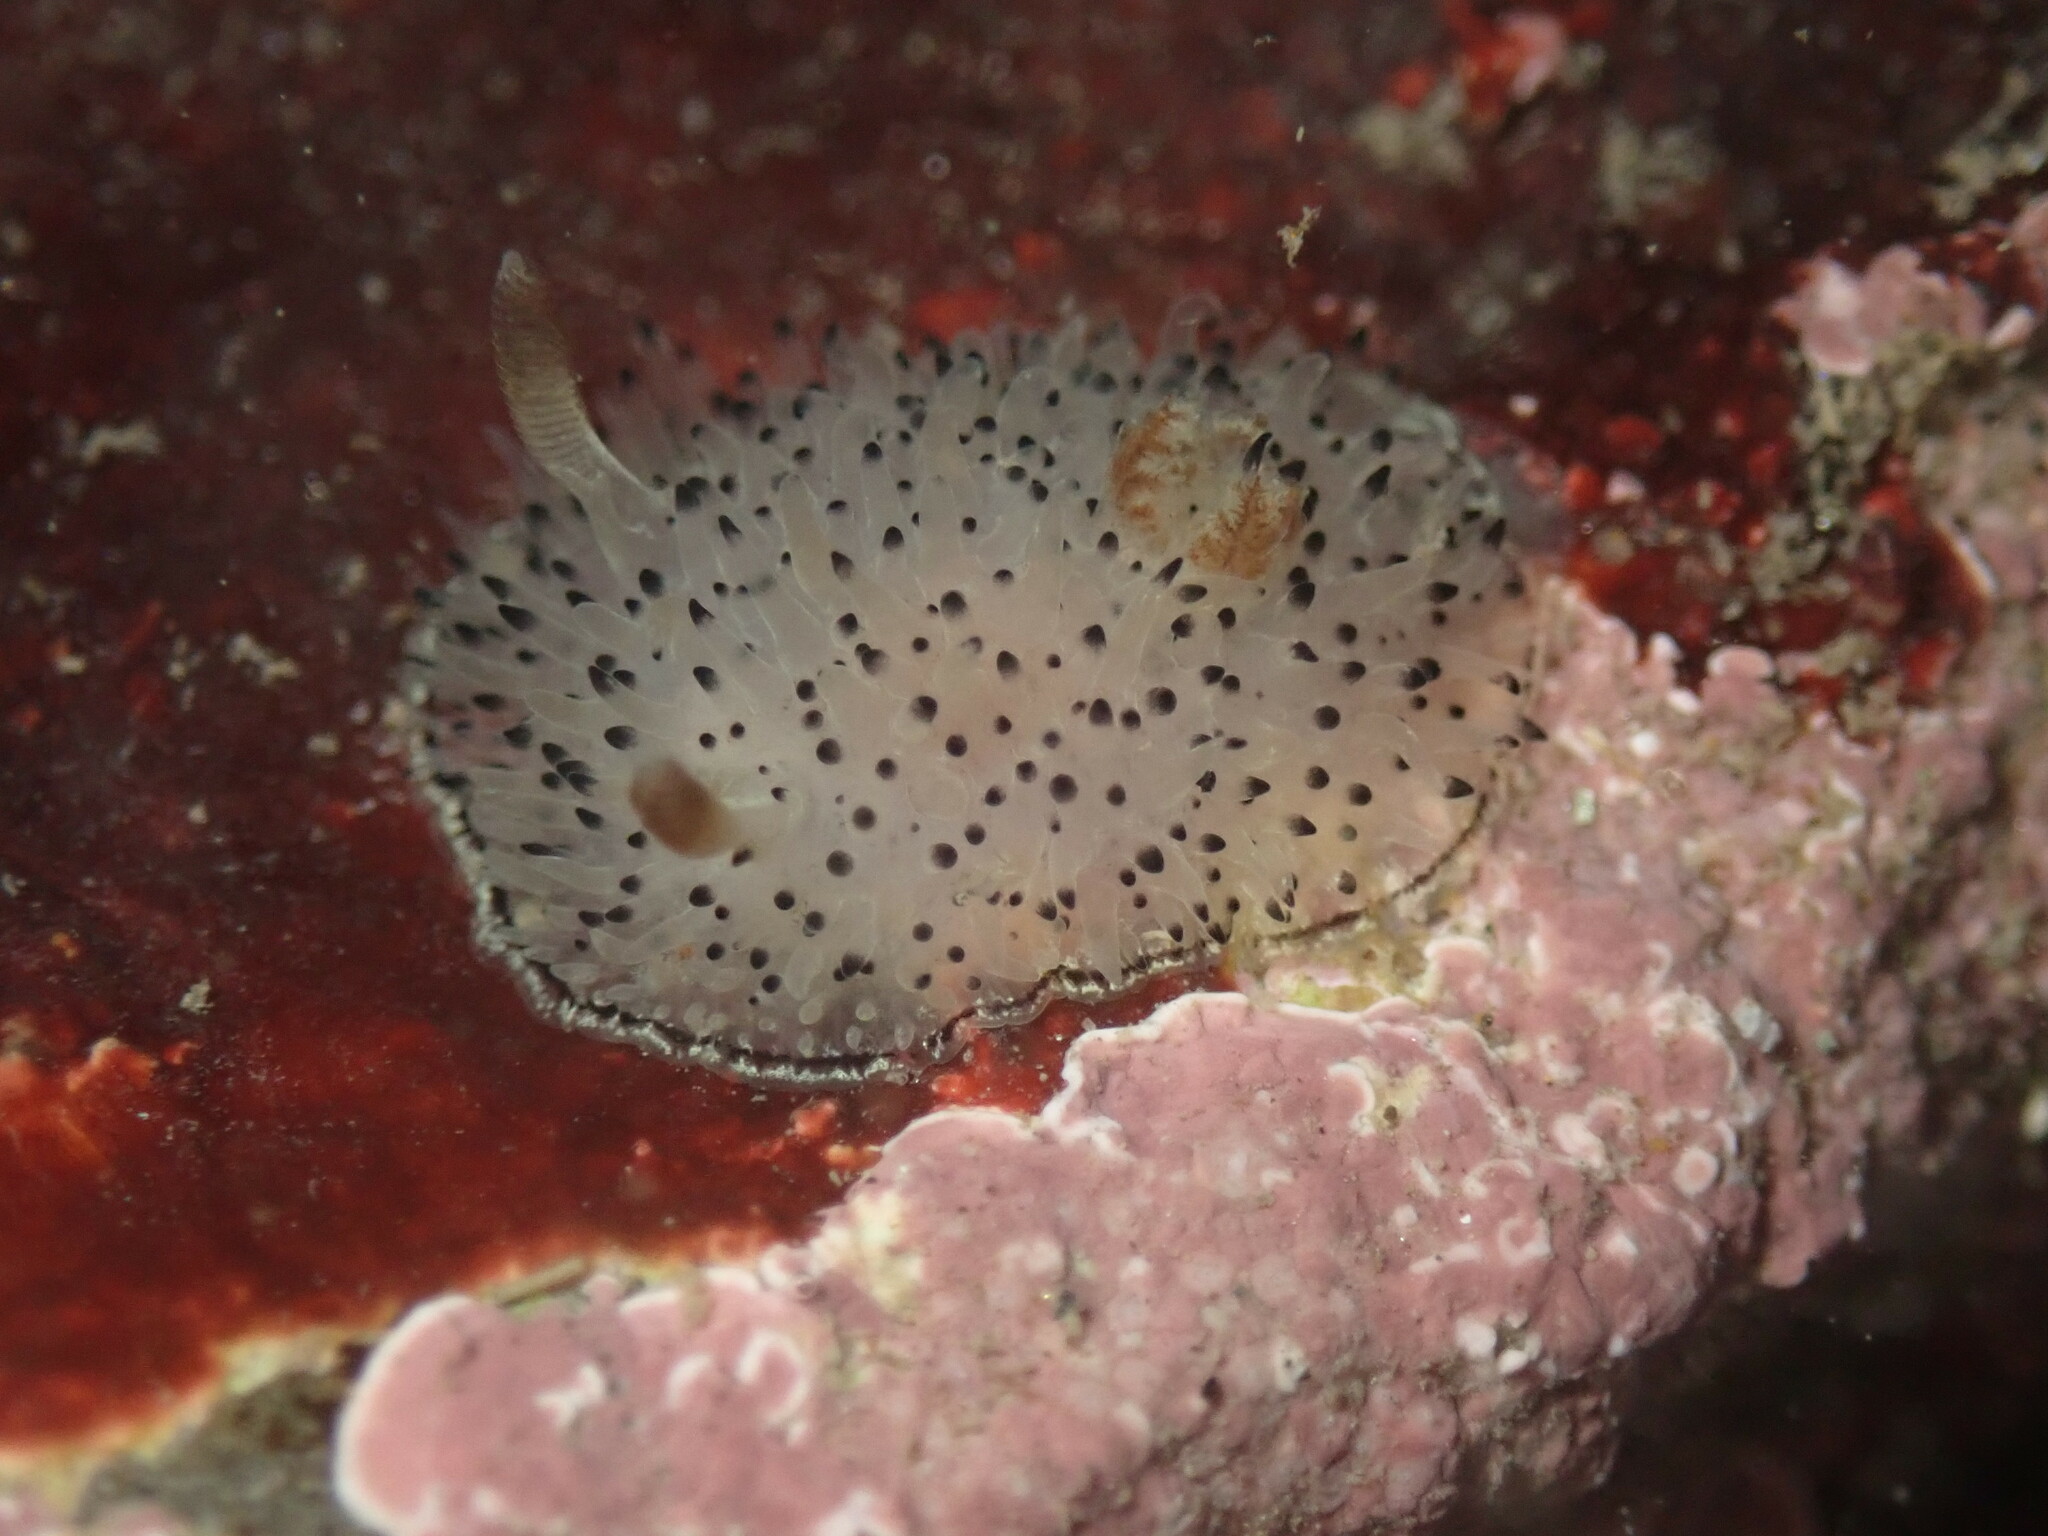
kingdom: Animalia
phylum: Mollusca
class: Gastropoda
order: Nudibranchia
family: Onchidorididae
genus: Acanthodoris
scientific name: Acanthodoris rhodoceras
